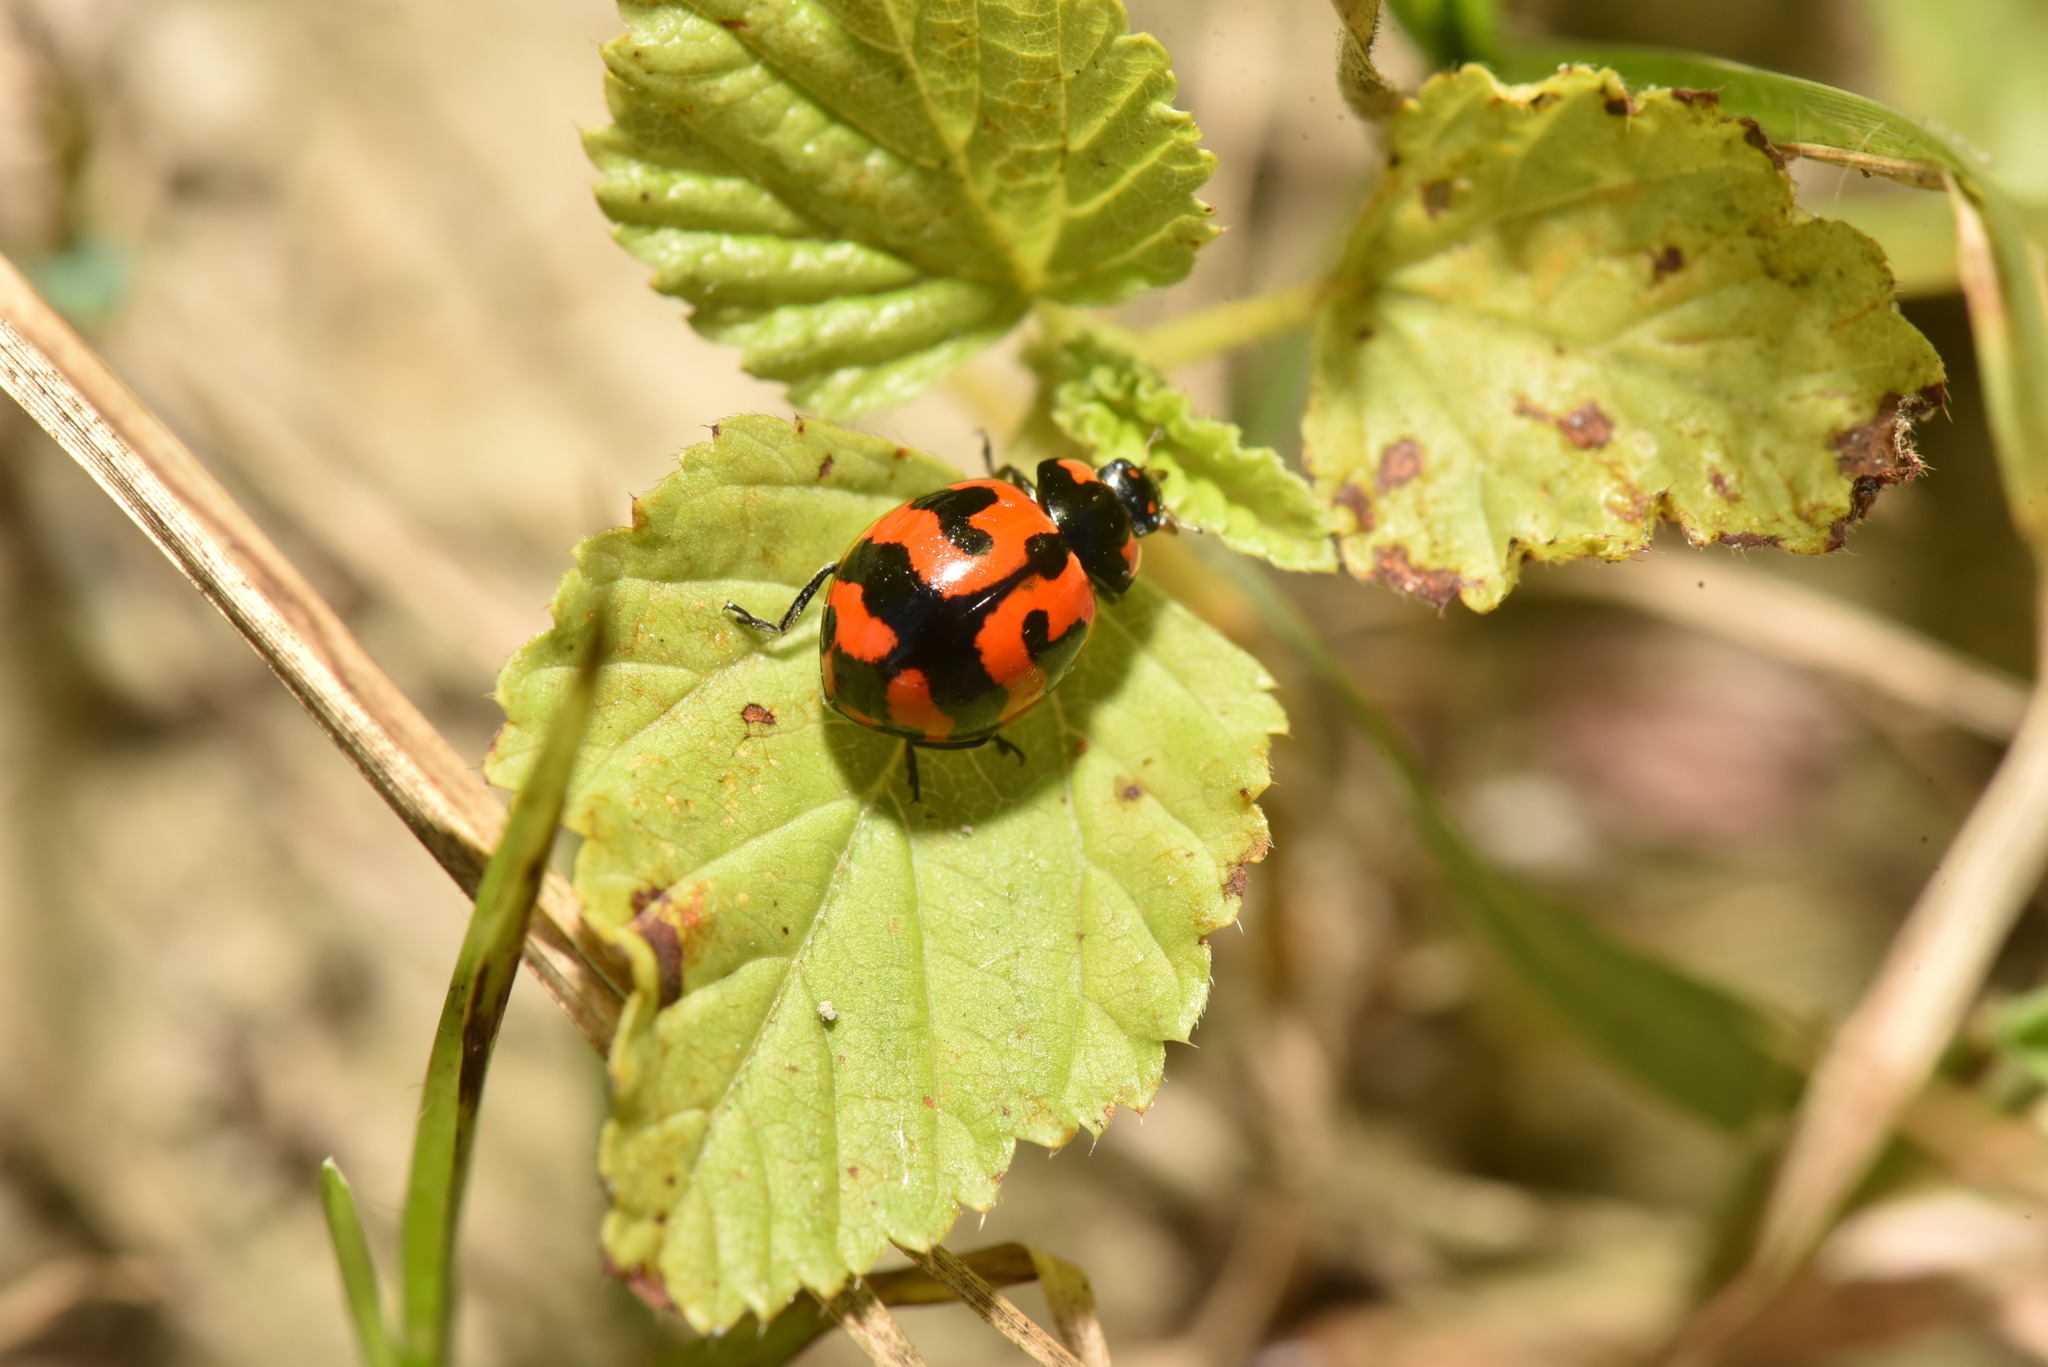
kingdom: Animalia
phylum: Arthropoda
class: Insecta
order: Coleoptera
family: Coccinellidae
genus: Coccinella
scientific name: Coccinella transversalis
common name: Transverse lady beetle
